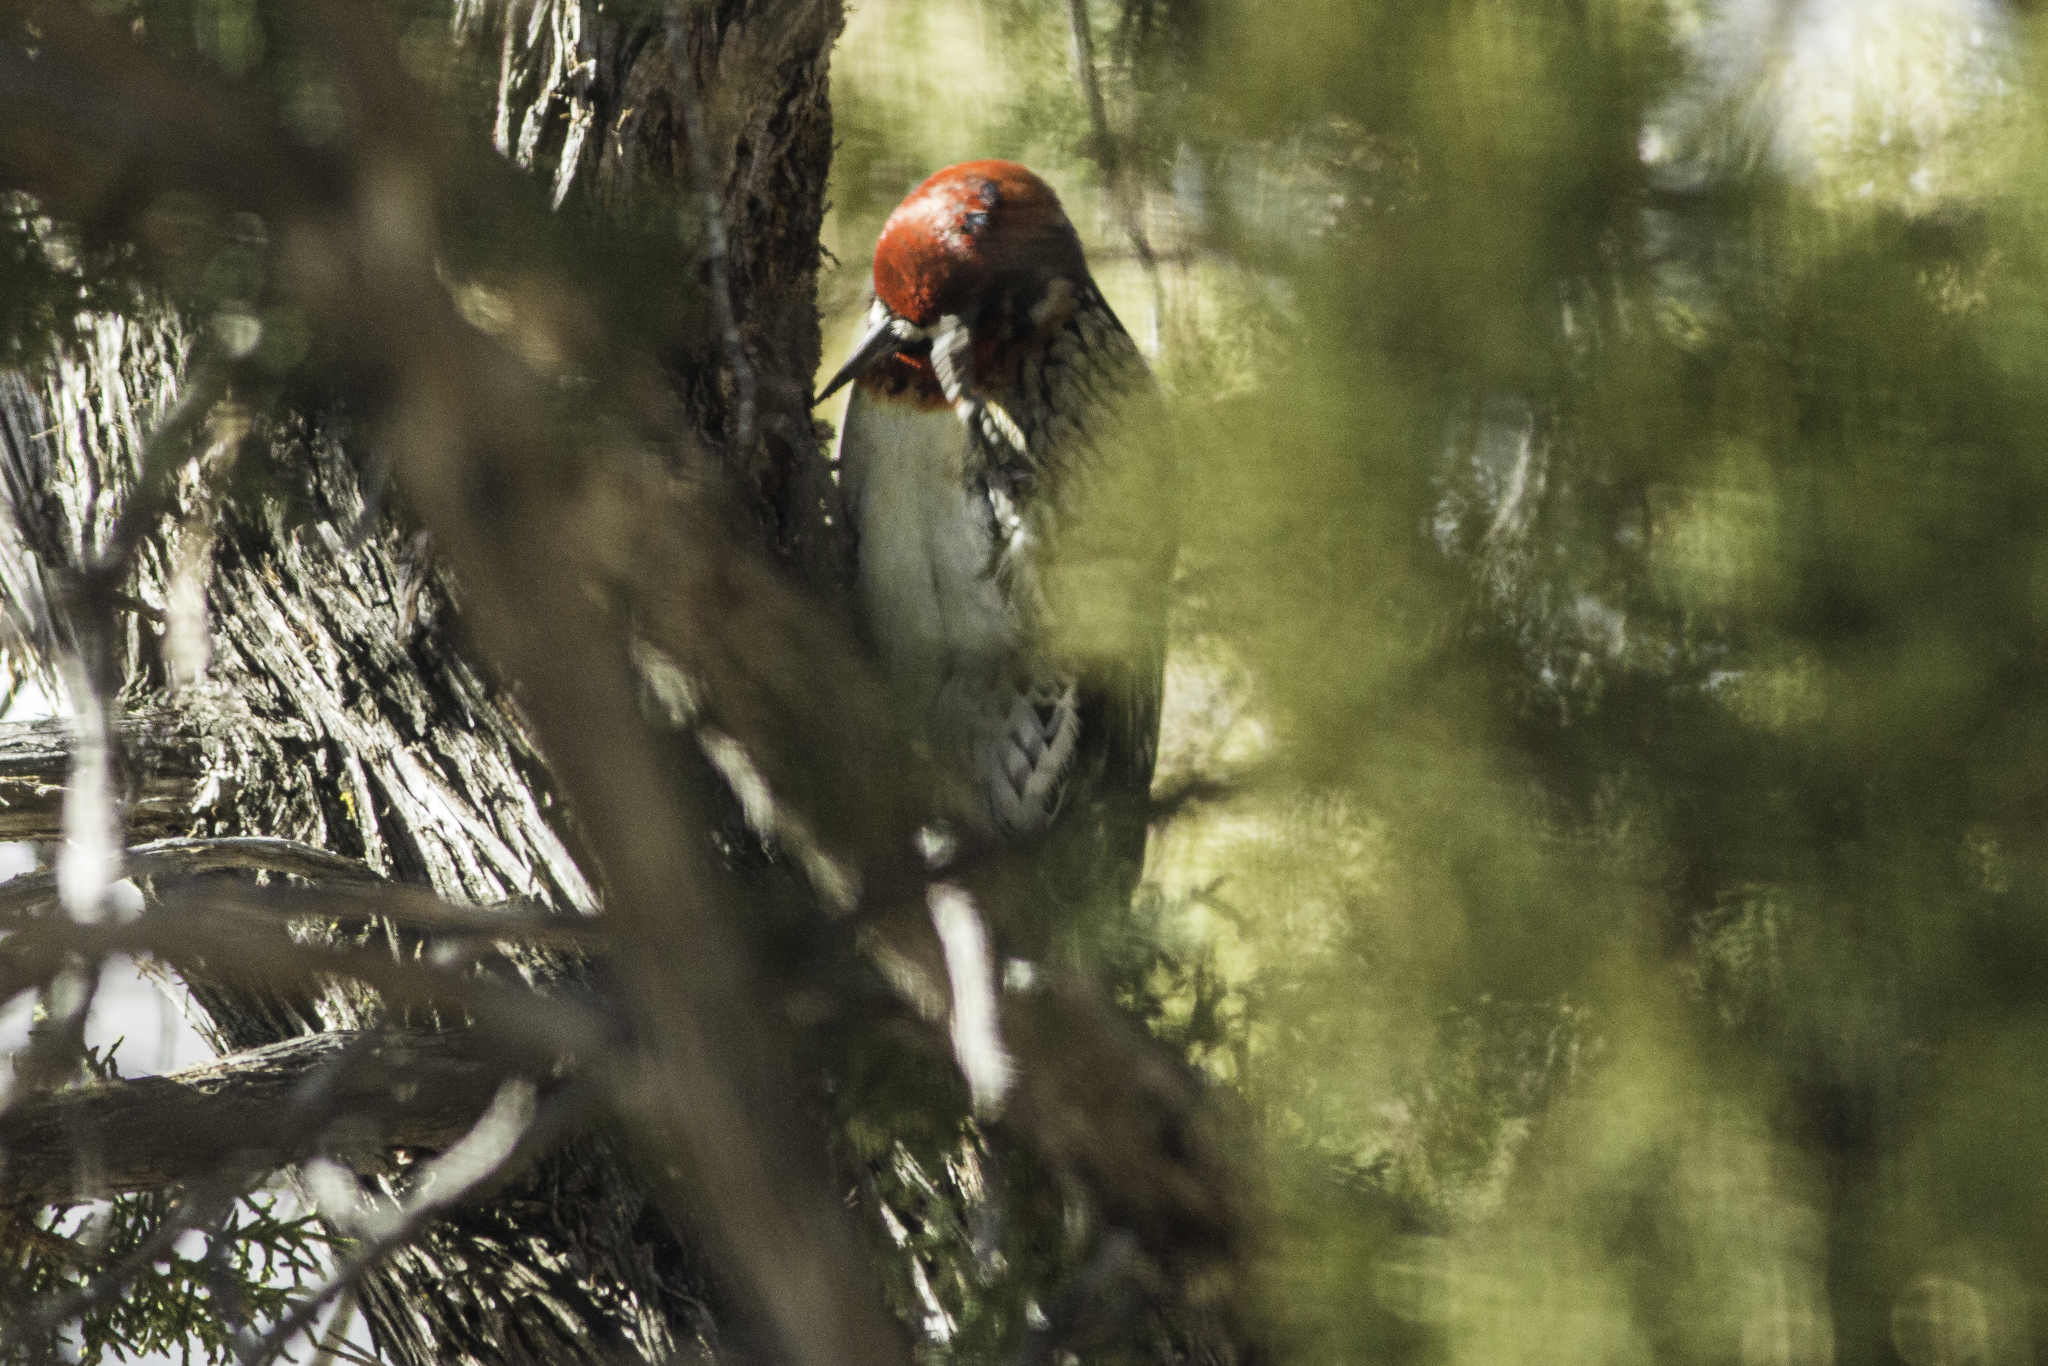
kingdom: Animalia
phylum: Chordata
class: Aves
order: Piciformes
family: Picidae
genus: Sphyrapicus
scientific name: Sphyrapicus
